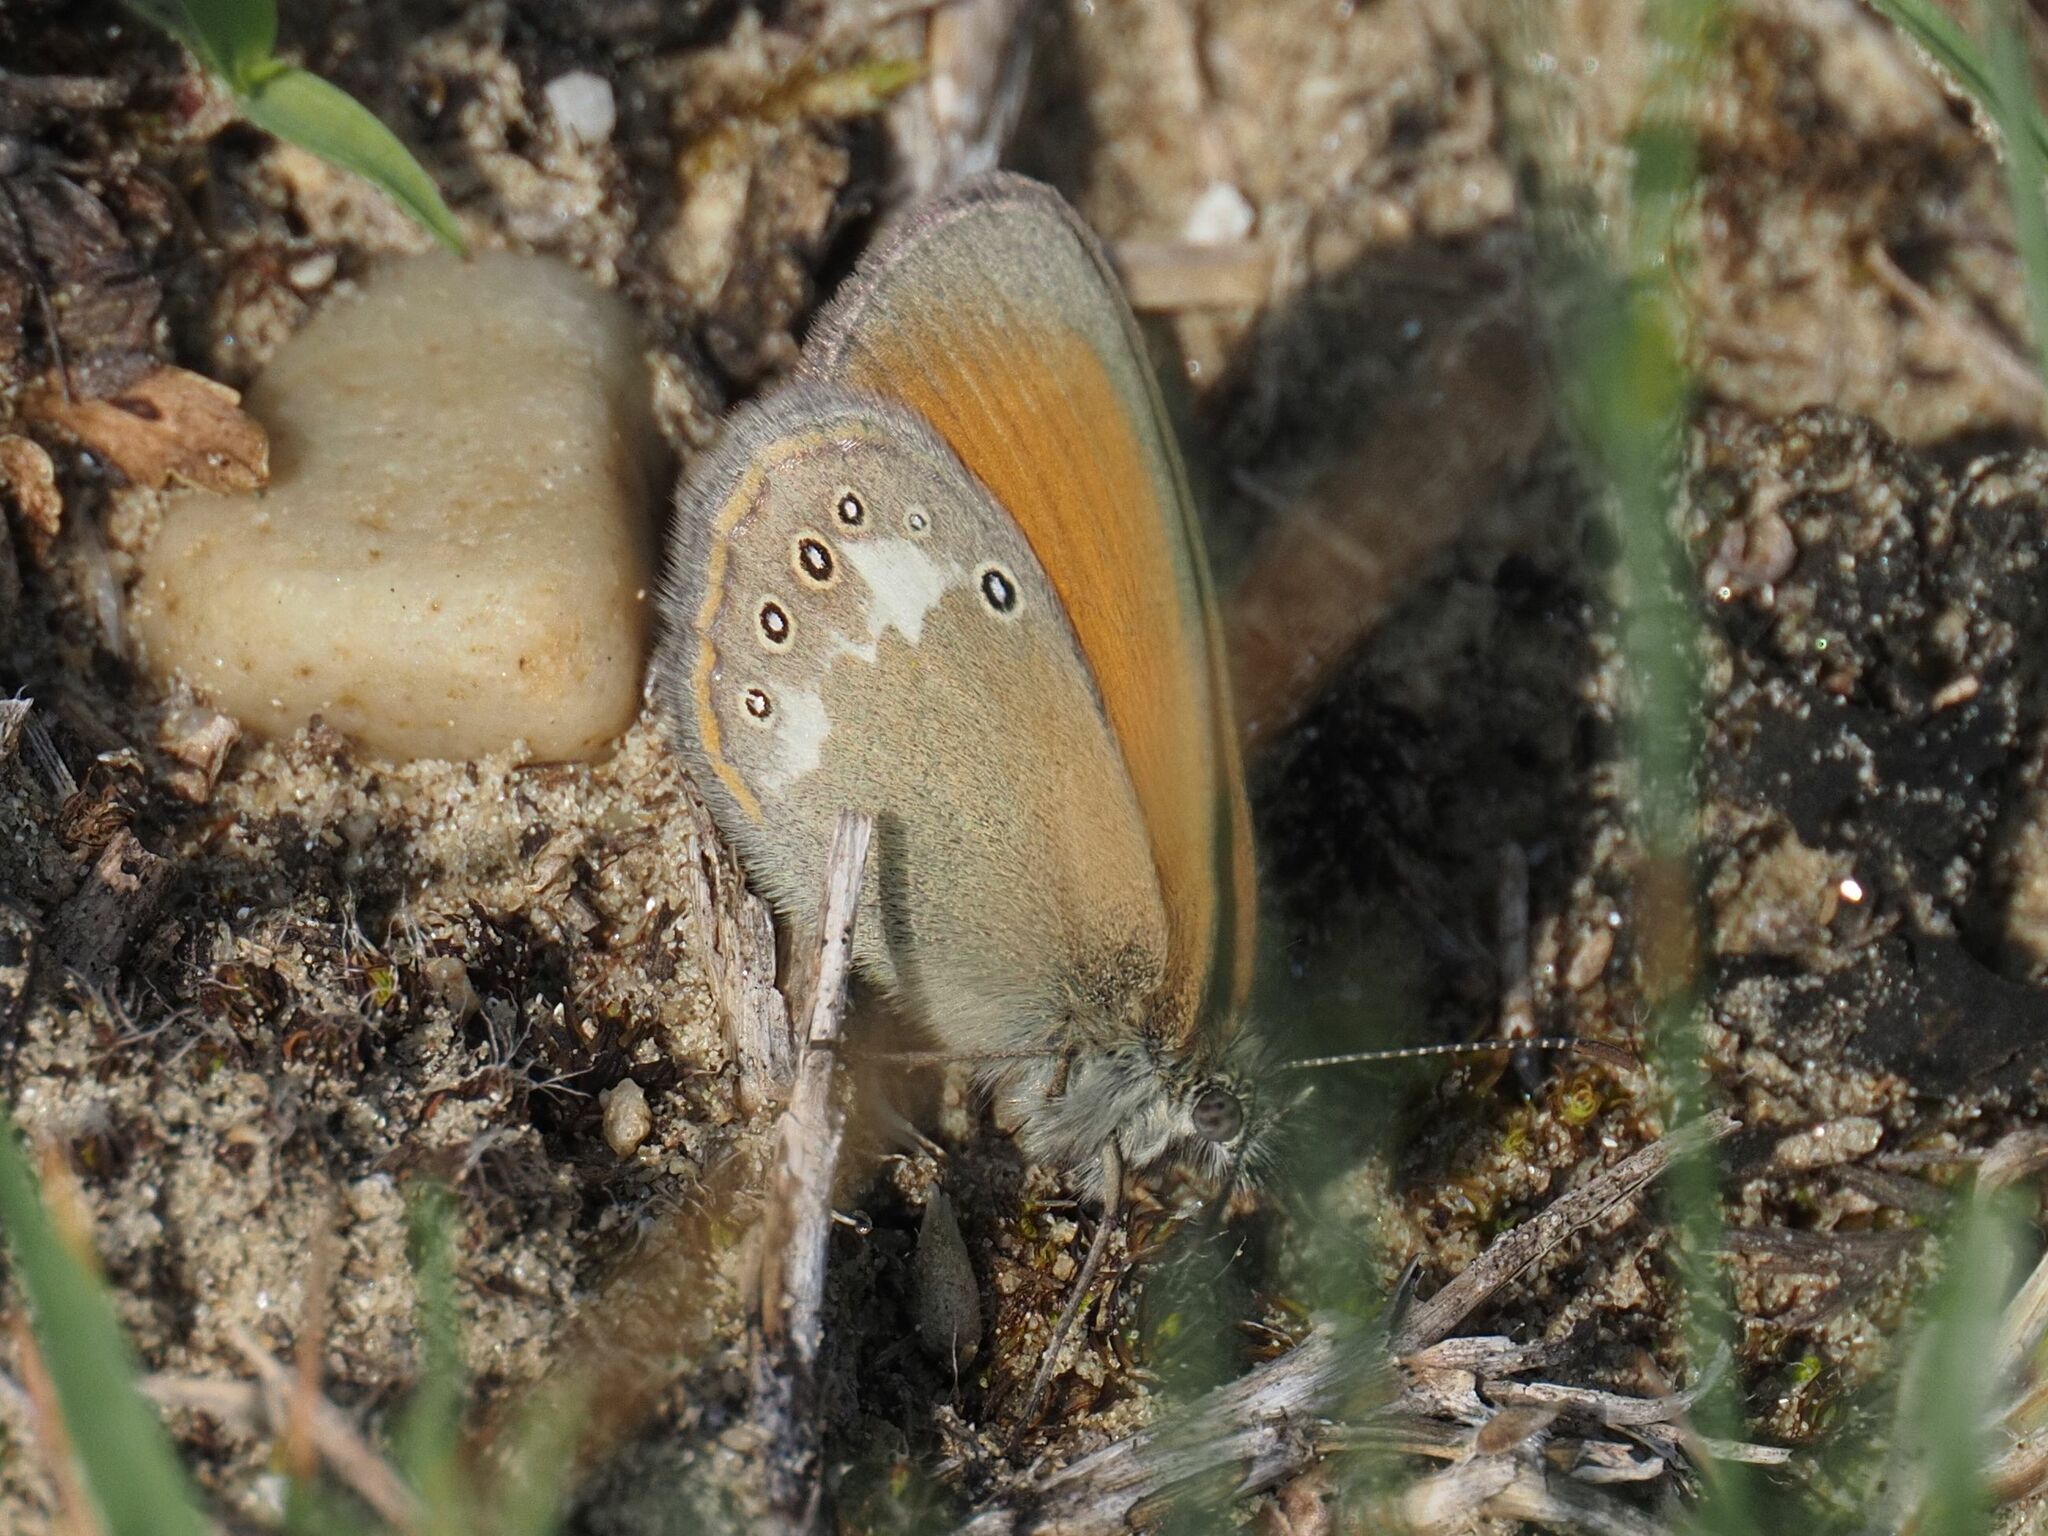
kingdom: Animalia
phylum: Arthropoda
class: Insecta
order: Lepidoptera
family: Nymphalidae
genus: Coenonympha
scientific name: Coenonympha iphis
